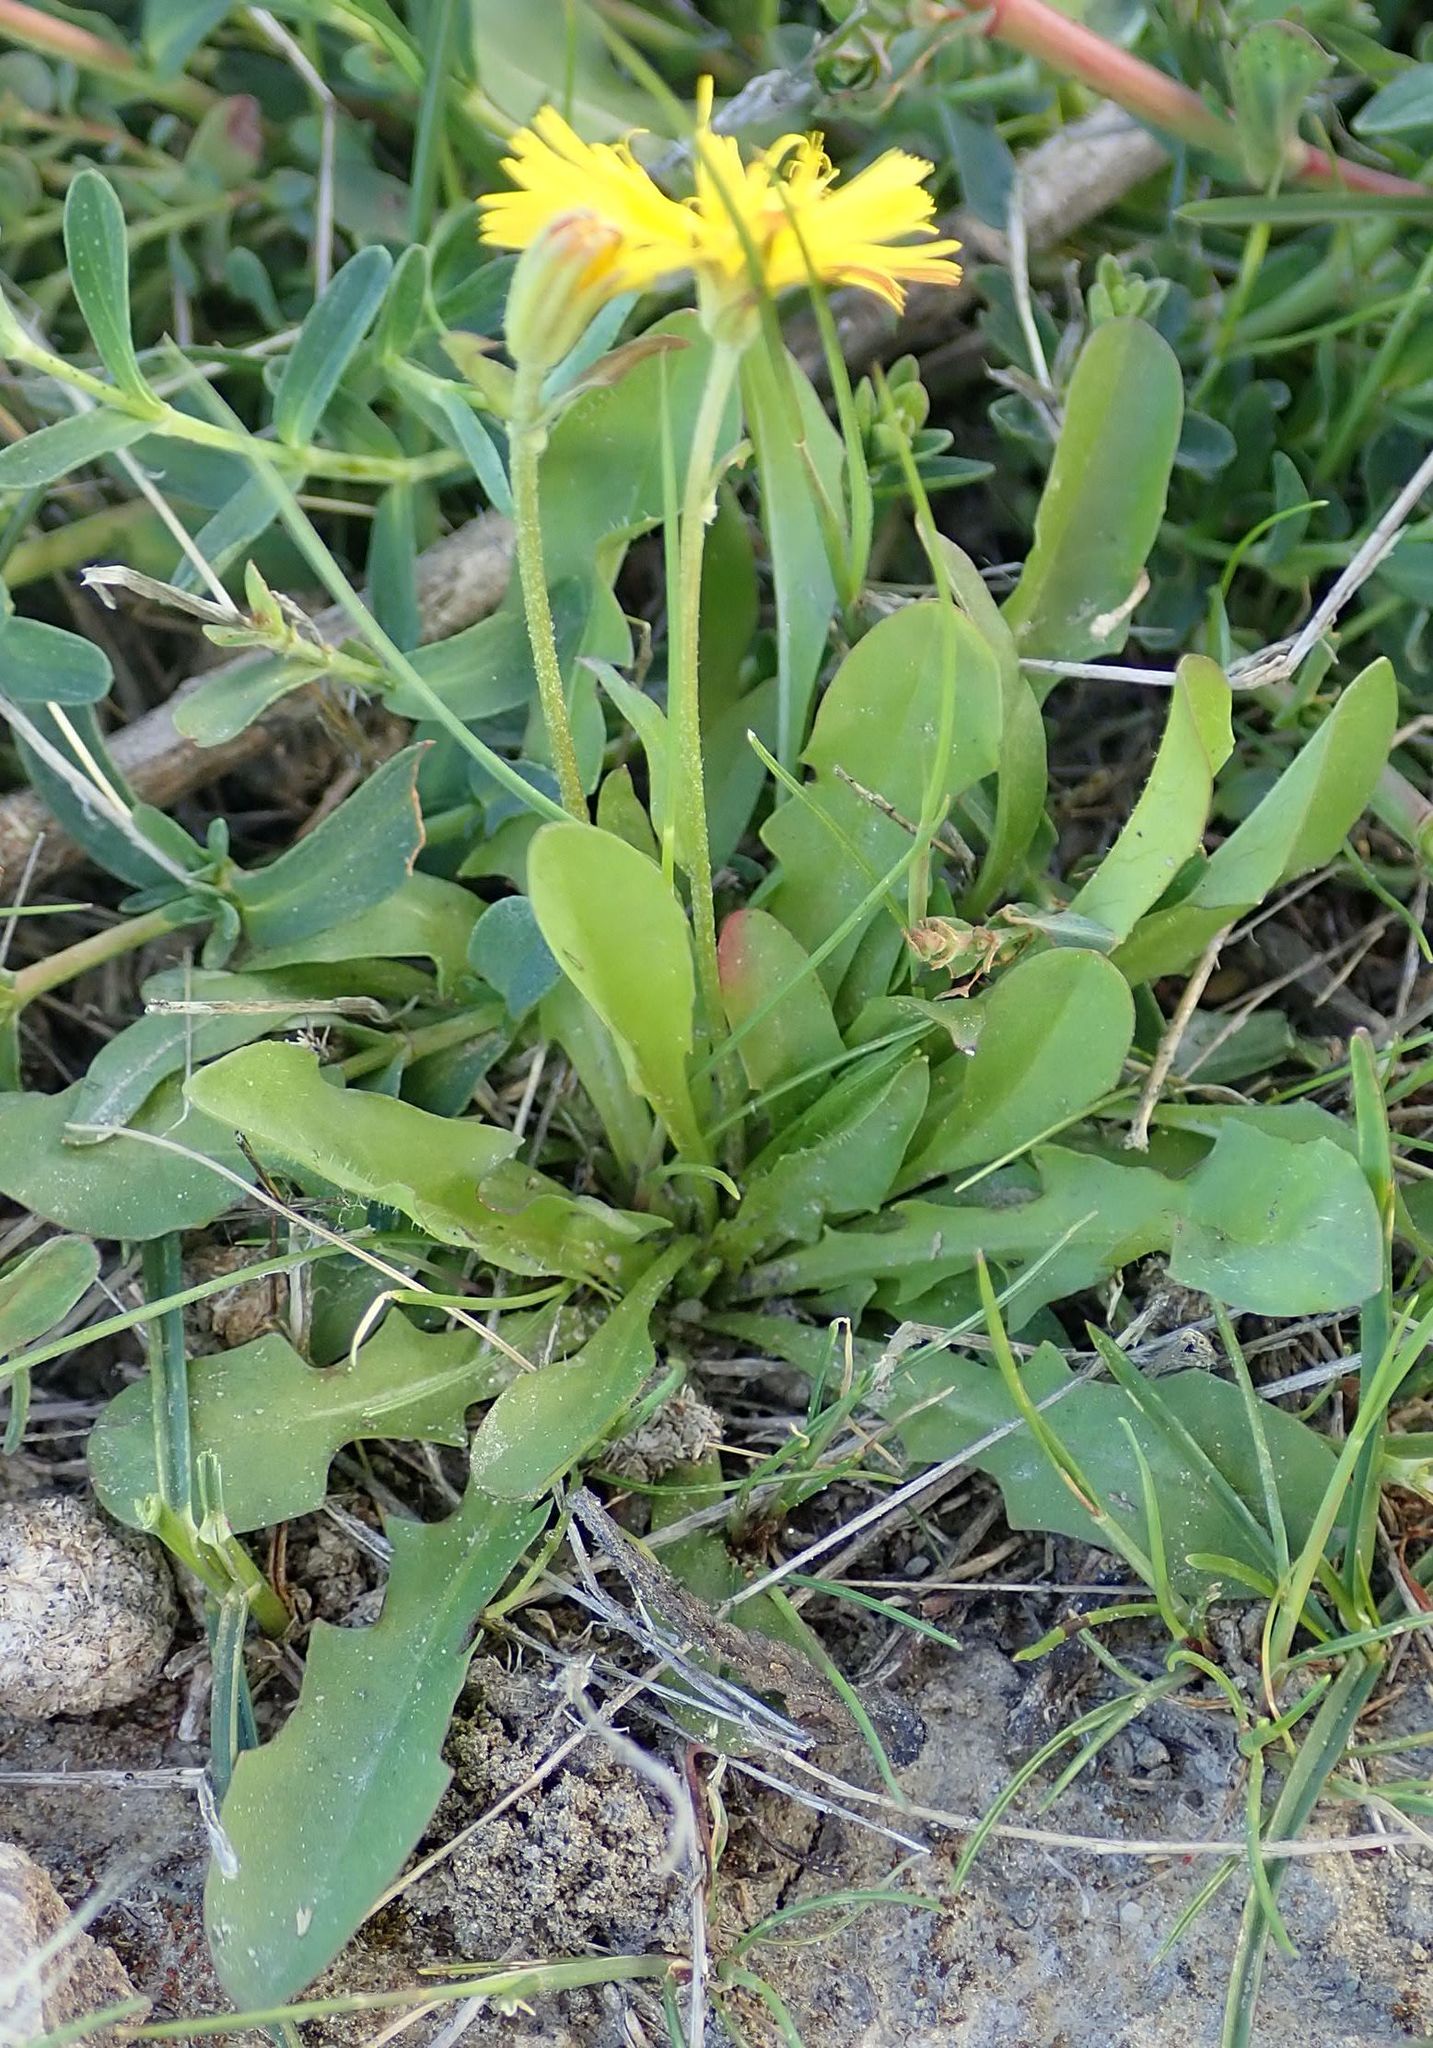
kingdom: Plantae
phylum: Tracheophyta
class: Magnoliopsida
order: Asterales
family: Asteraceae
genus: Thrincia
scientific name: Thrincia saxatilis
